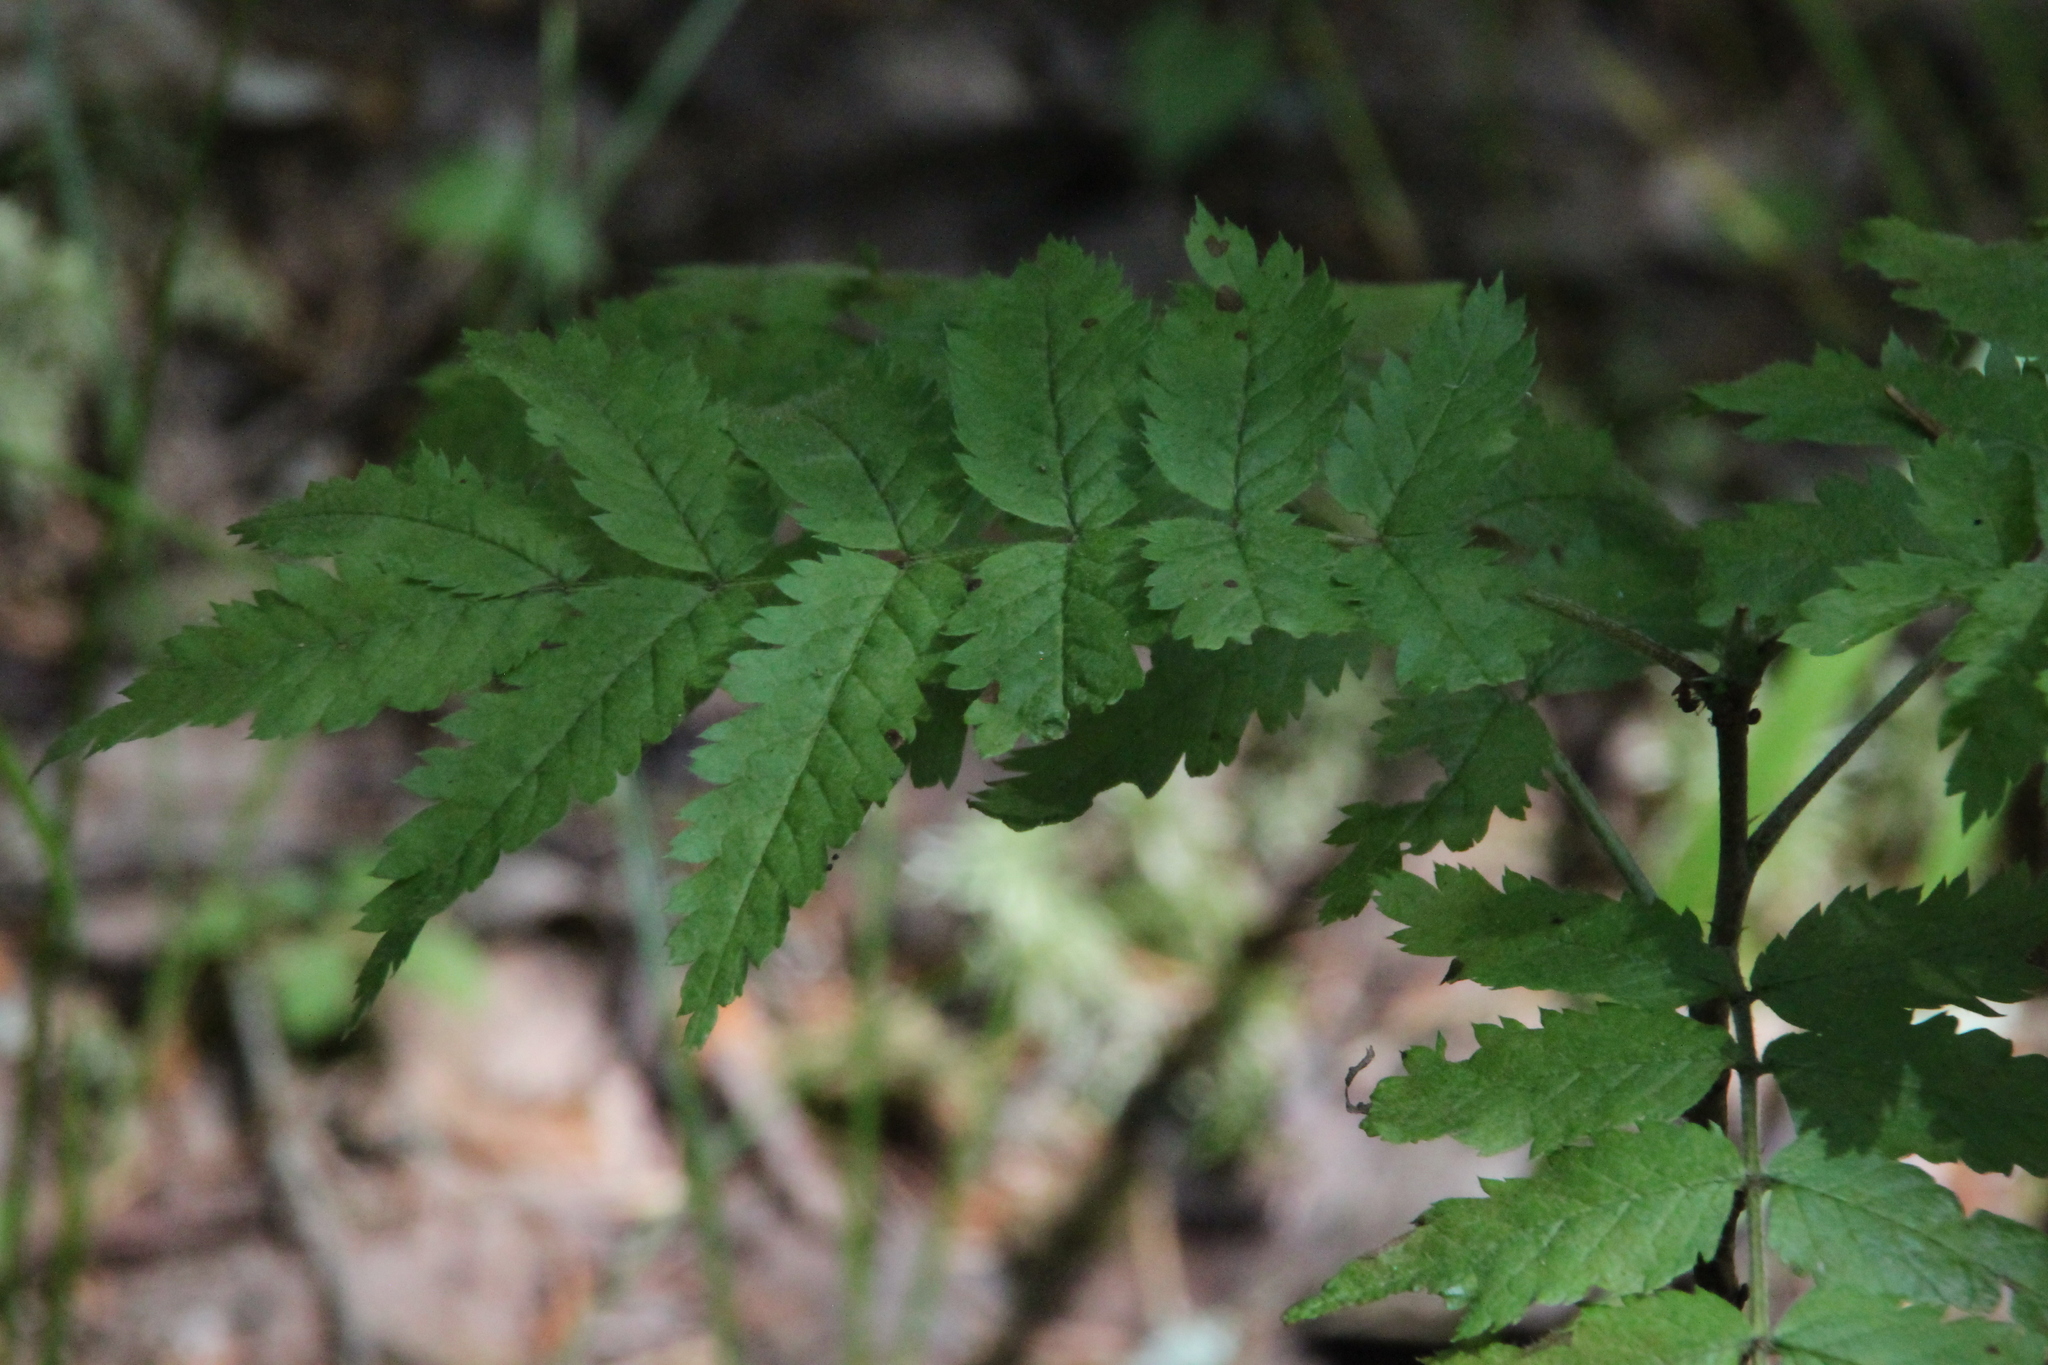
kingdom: Plantae
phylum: Tracheophyta
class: Magnoliopsida
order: Rosales
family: Rosaceae
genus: Sorbus
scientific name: Sorbus aucuparia
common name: Rowan
